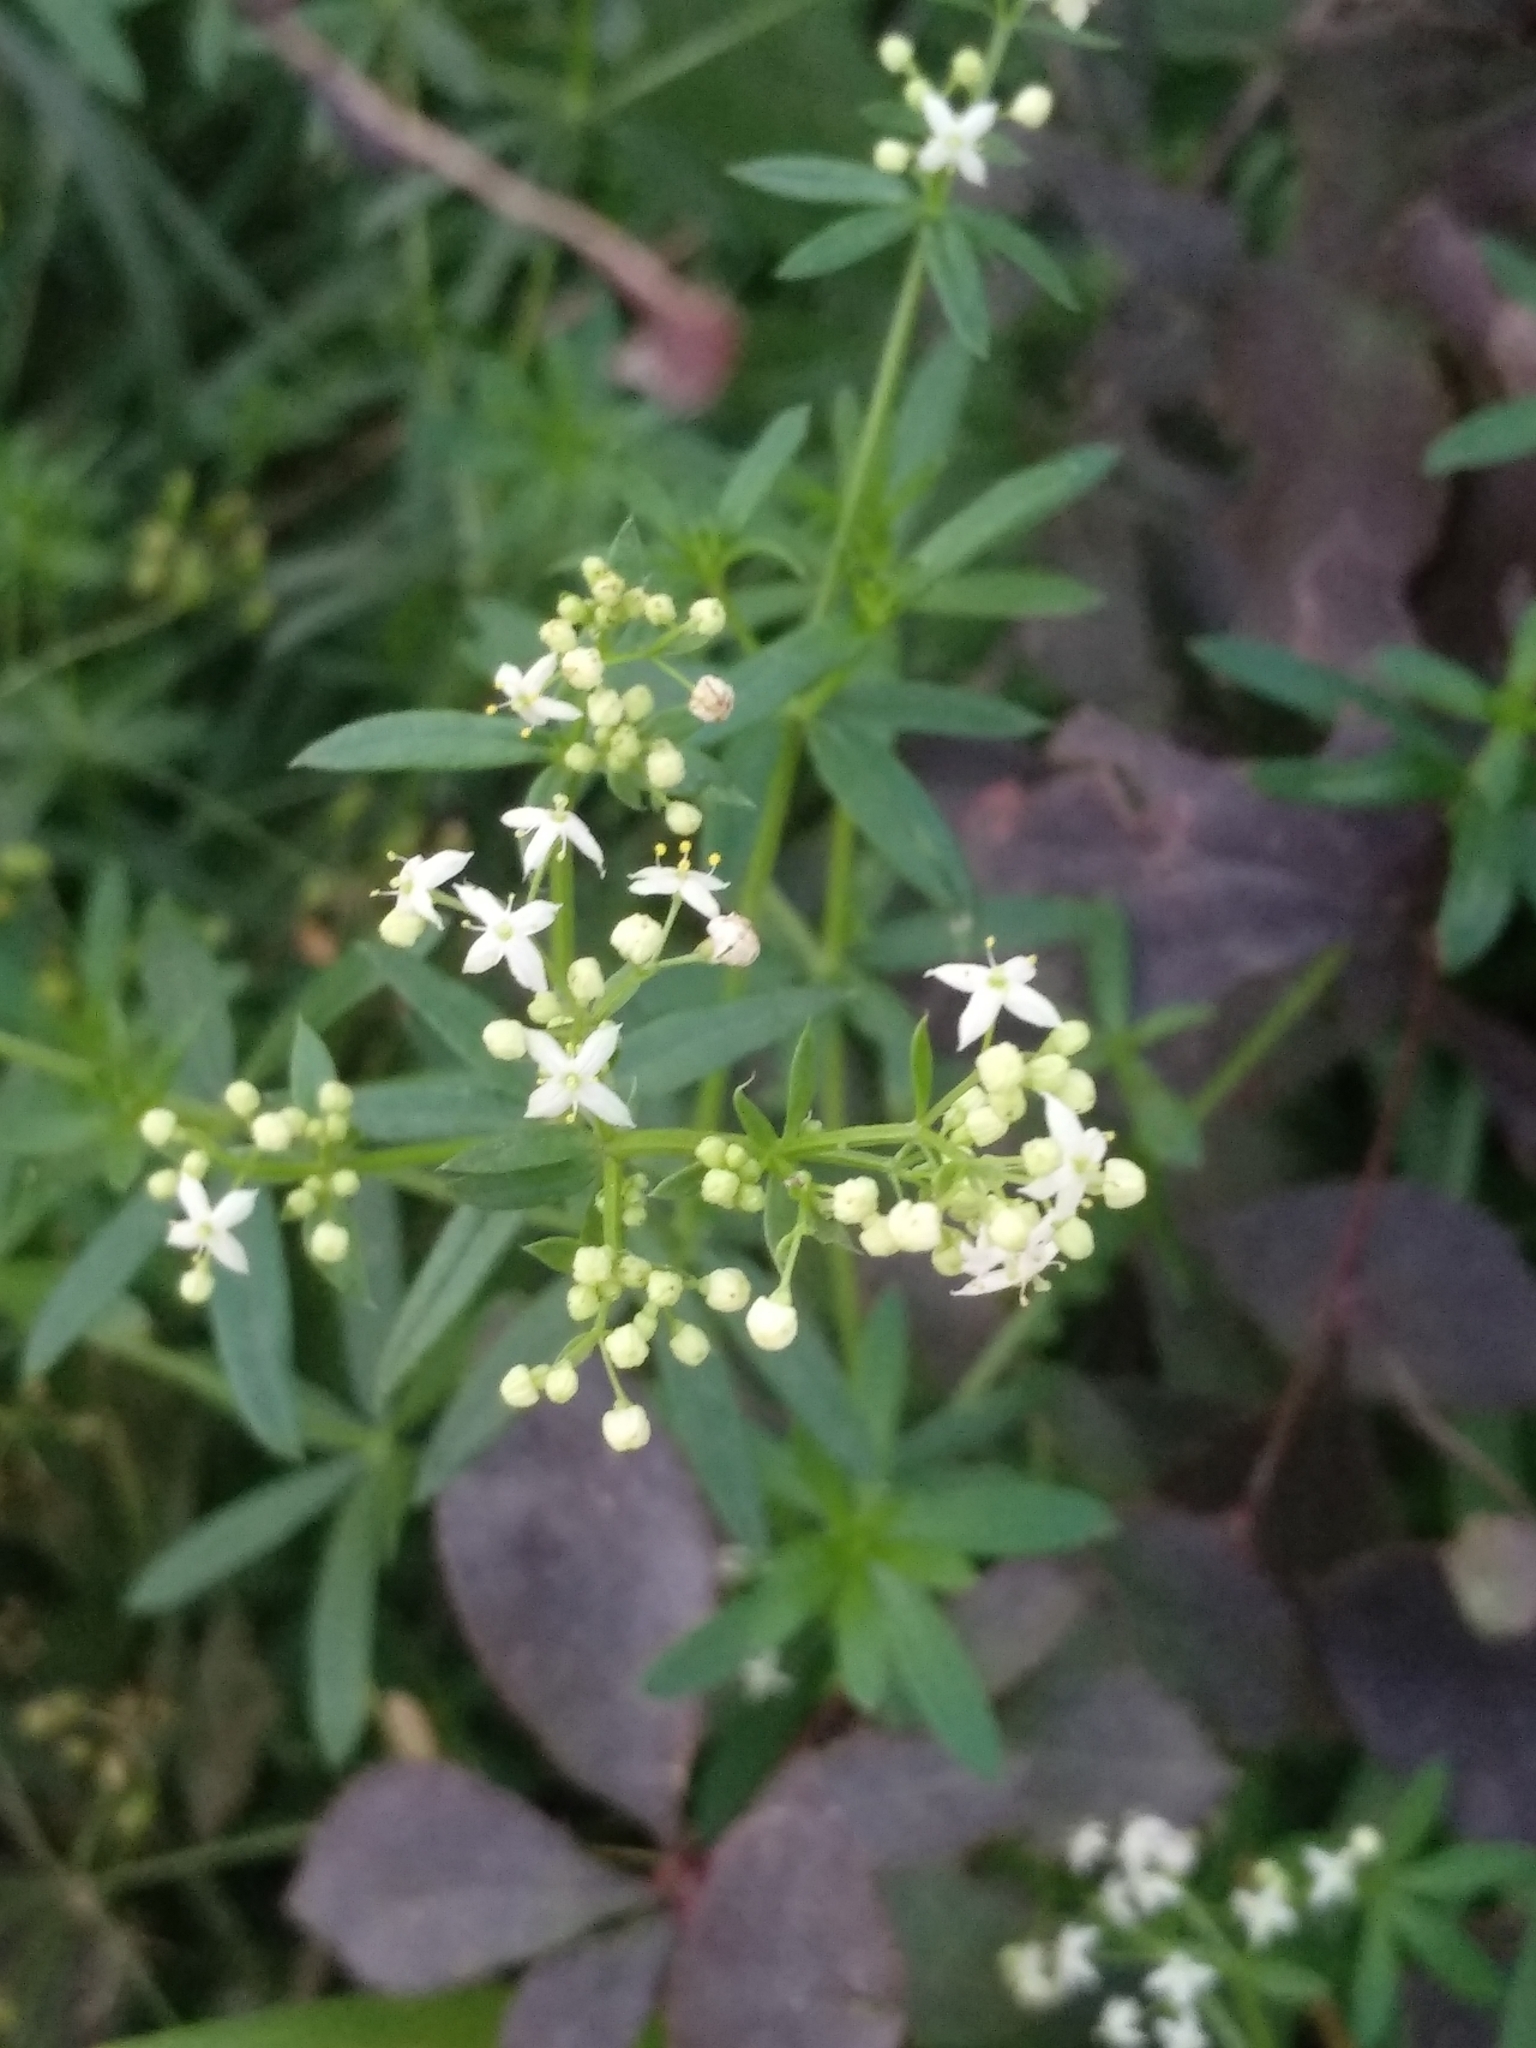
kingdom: Plantae
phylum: Tracheophyta
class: Magnoliopsida
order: Gentianales
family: Rubiaceae
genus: Galium
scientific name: Galium mollugo
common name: Hedge bedstraw
